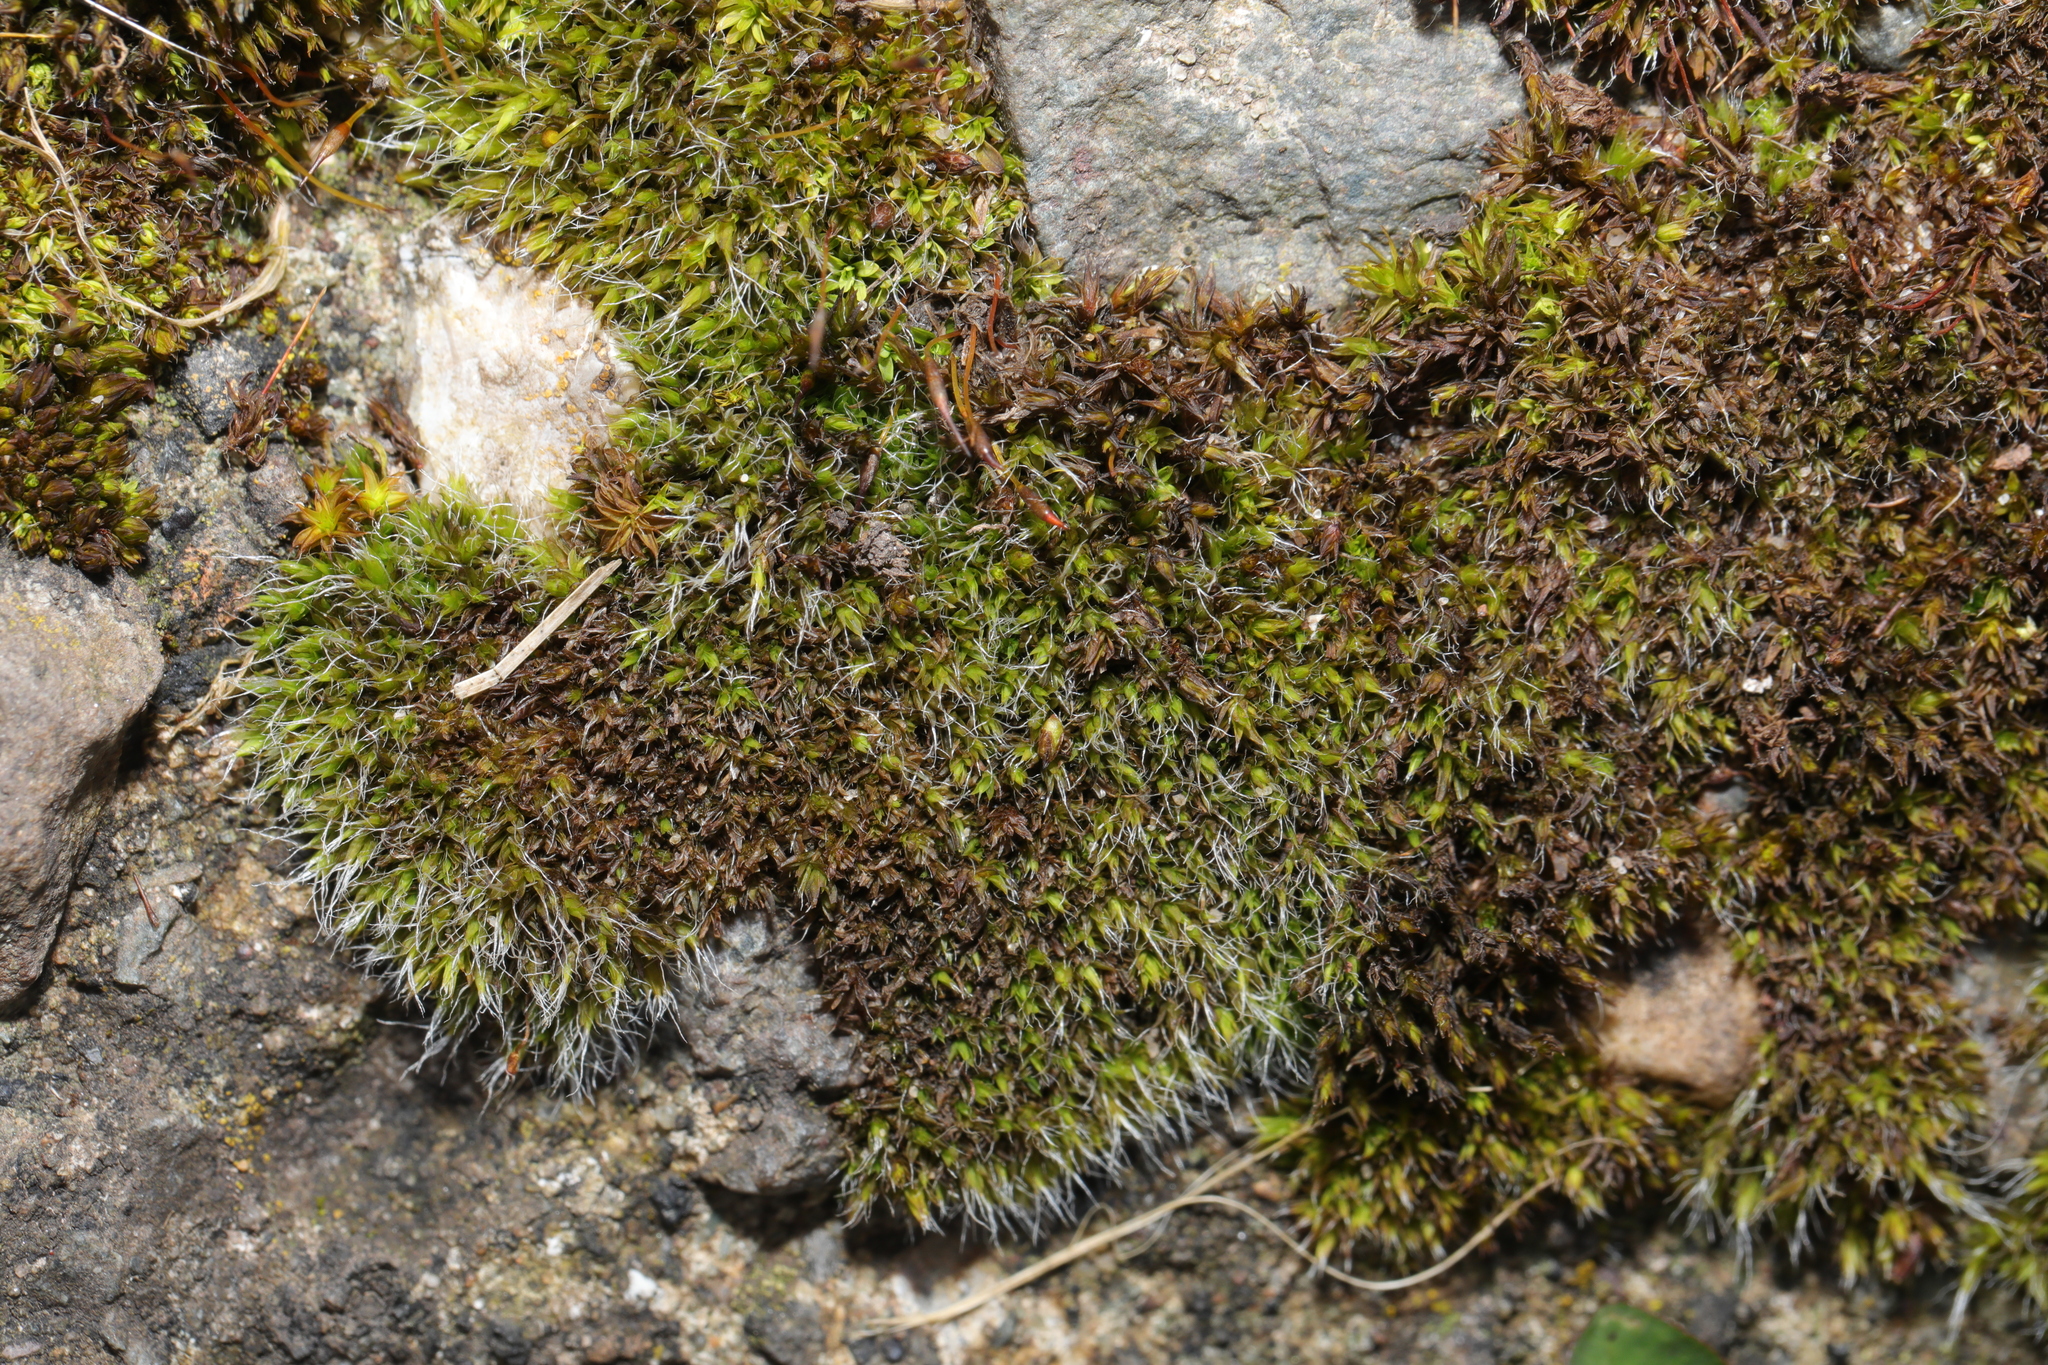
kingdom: Plantae
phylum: Bryophyta
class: Bryopsida
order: Grimmiales
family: Grimmiaceae
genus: Grimmia
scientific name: Grimmia pulvinata
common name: Grey-cushioned grimmia
